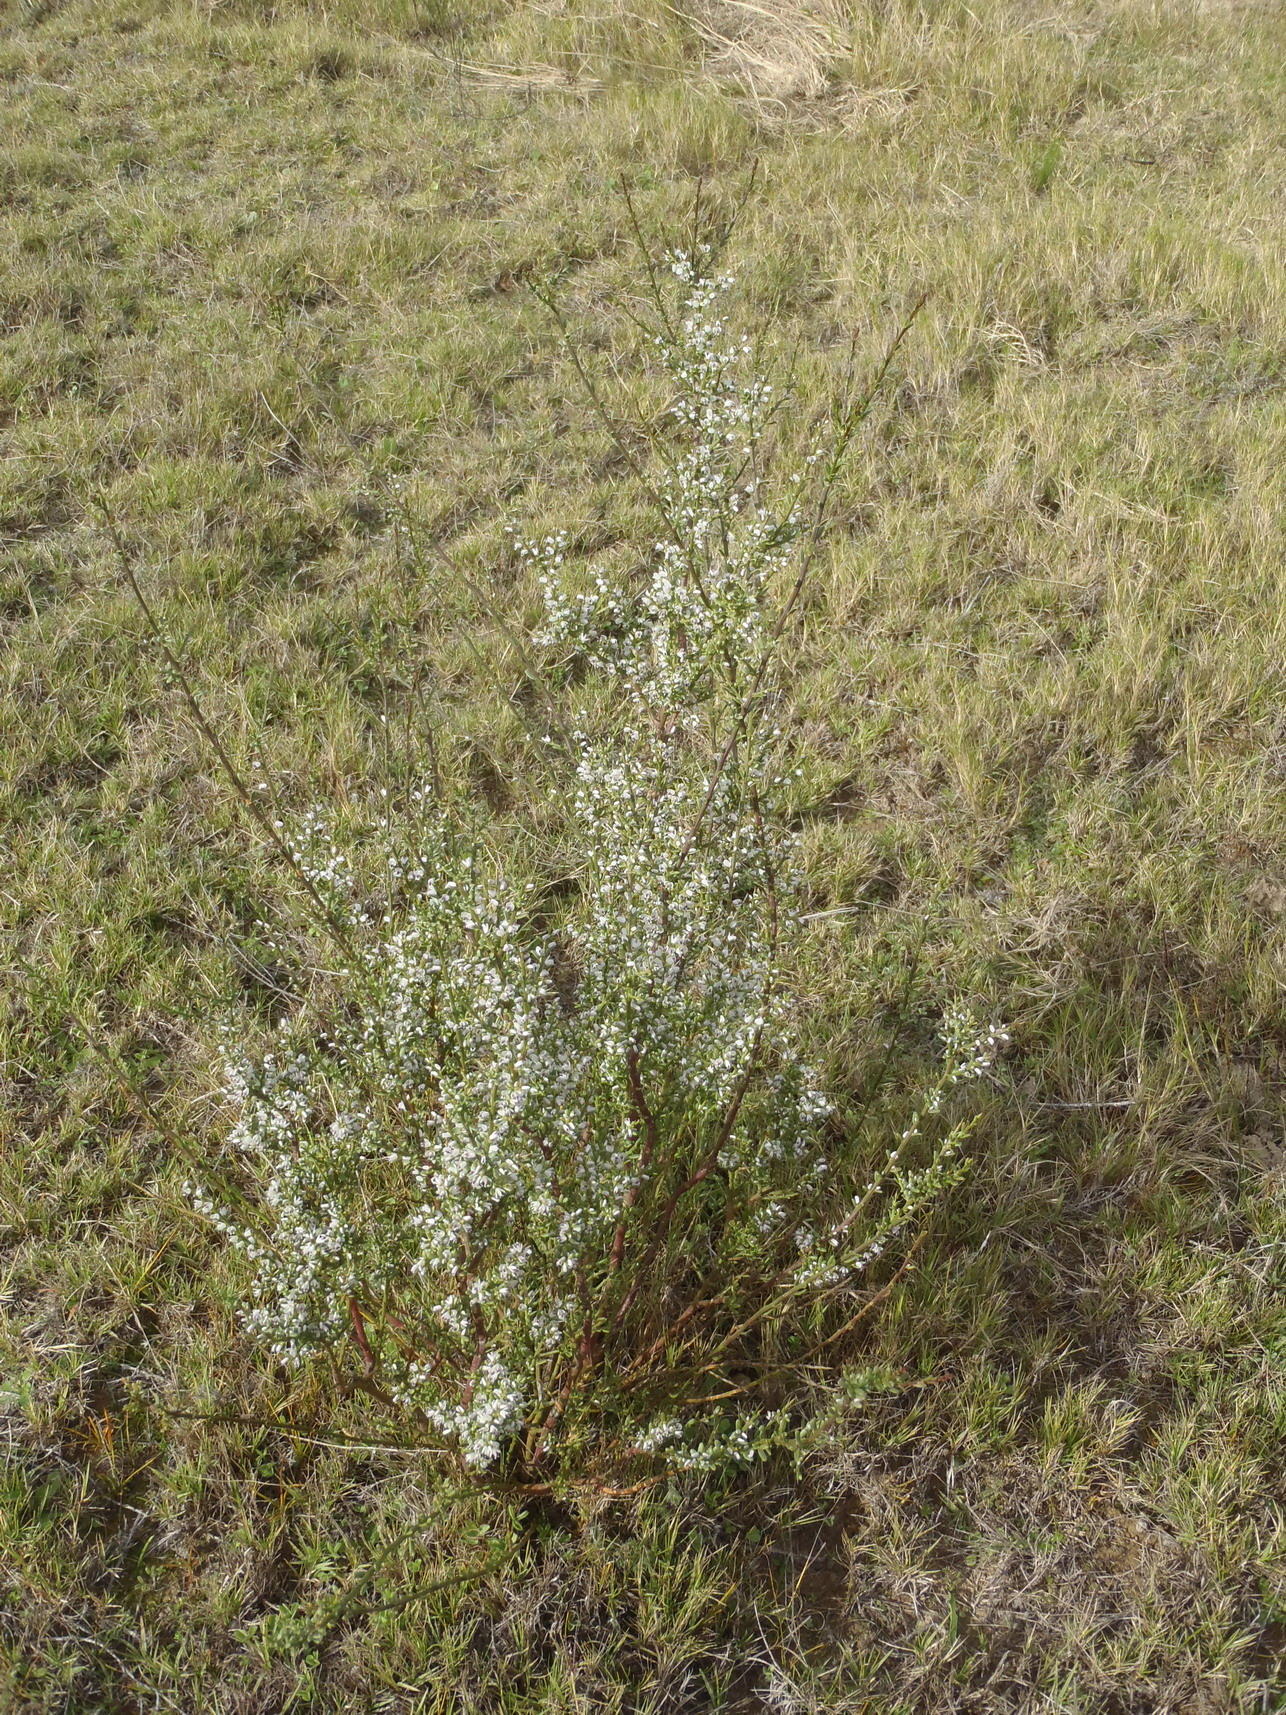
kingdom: Plantae
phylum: Tracheophyta
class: Magnoliopsida
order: Fabales
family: Polygalaceae
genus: Muraltia
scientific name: Muraltia spinosa
